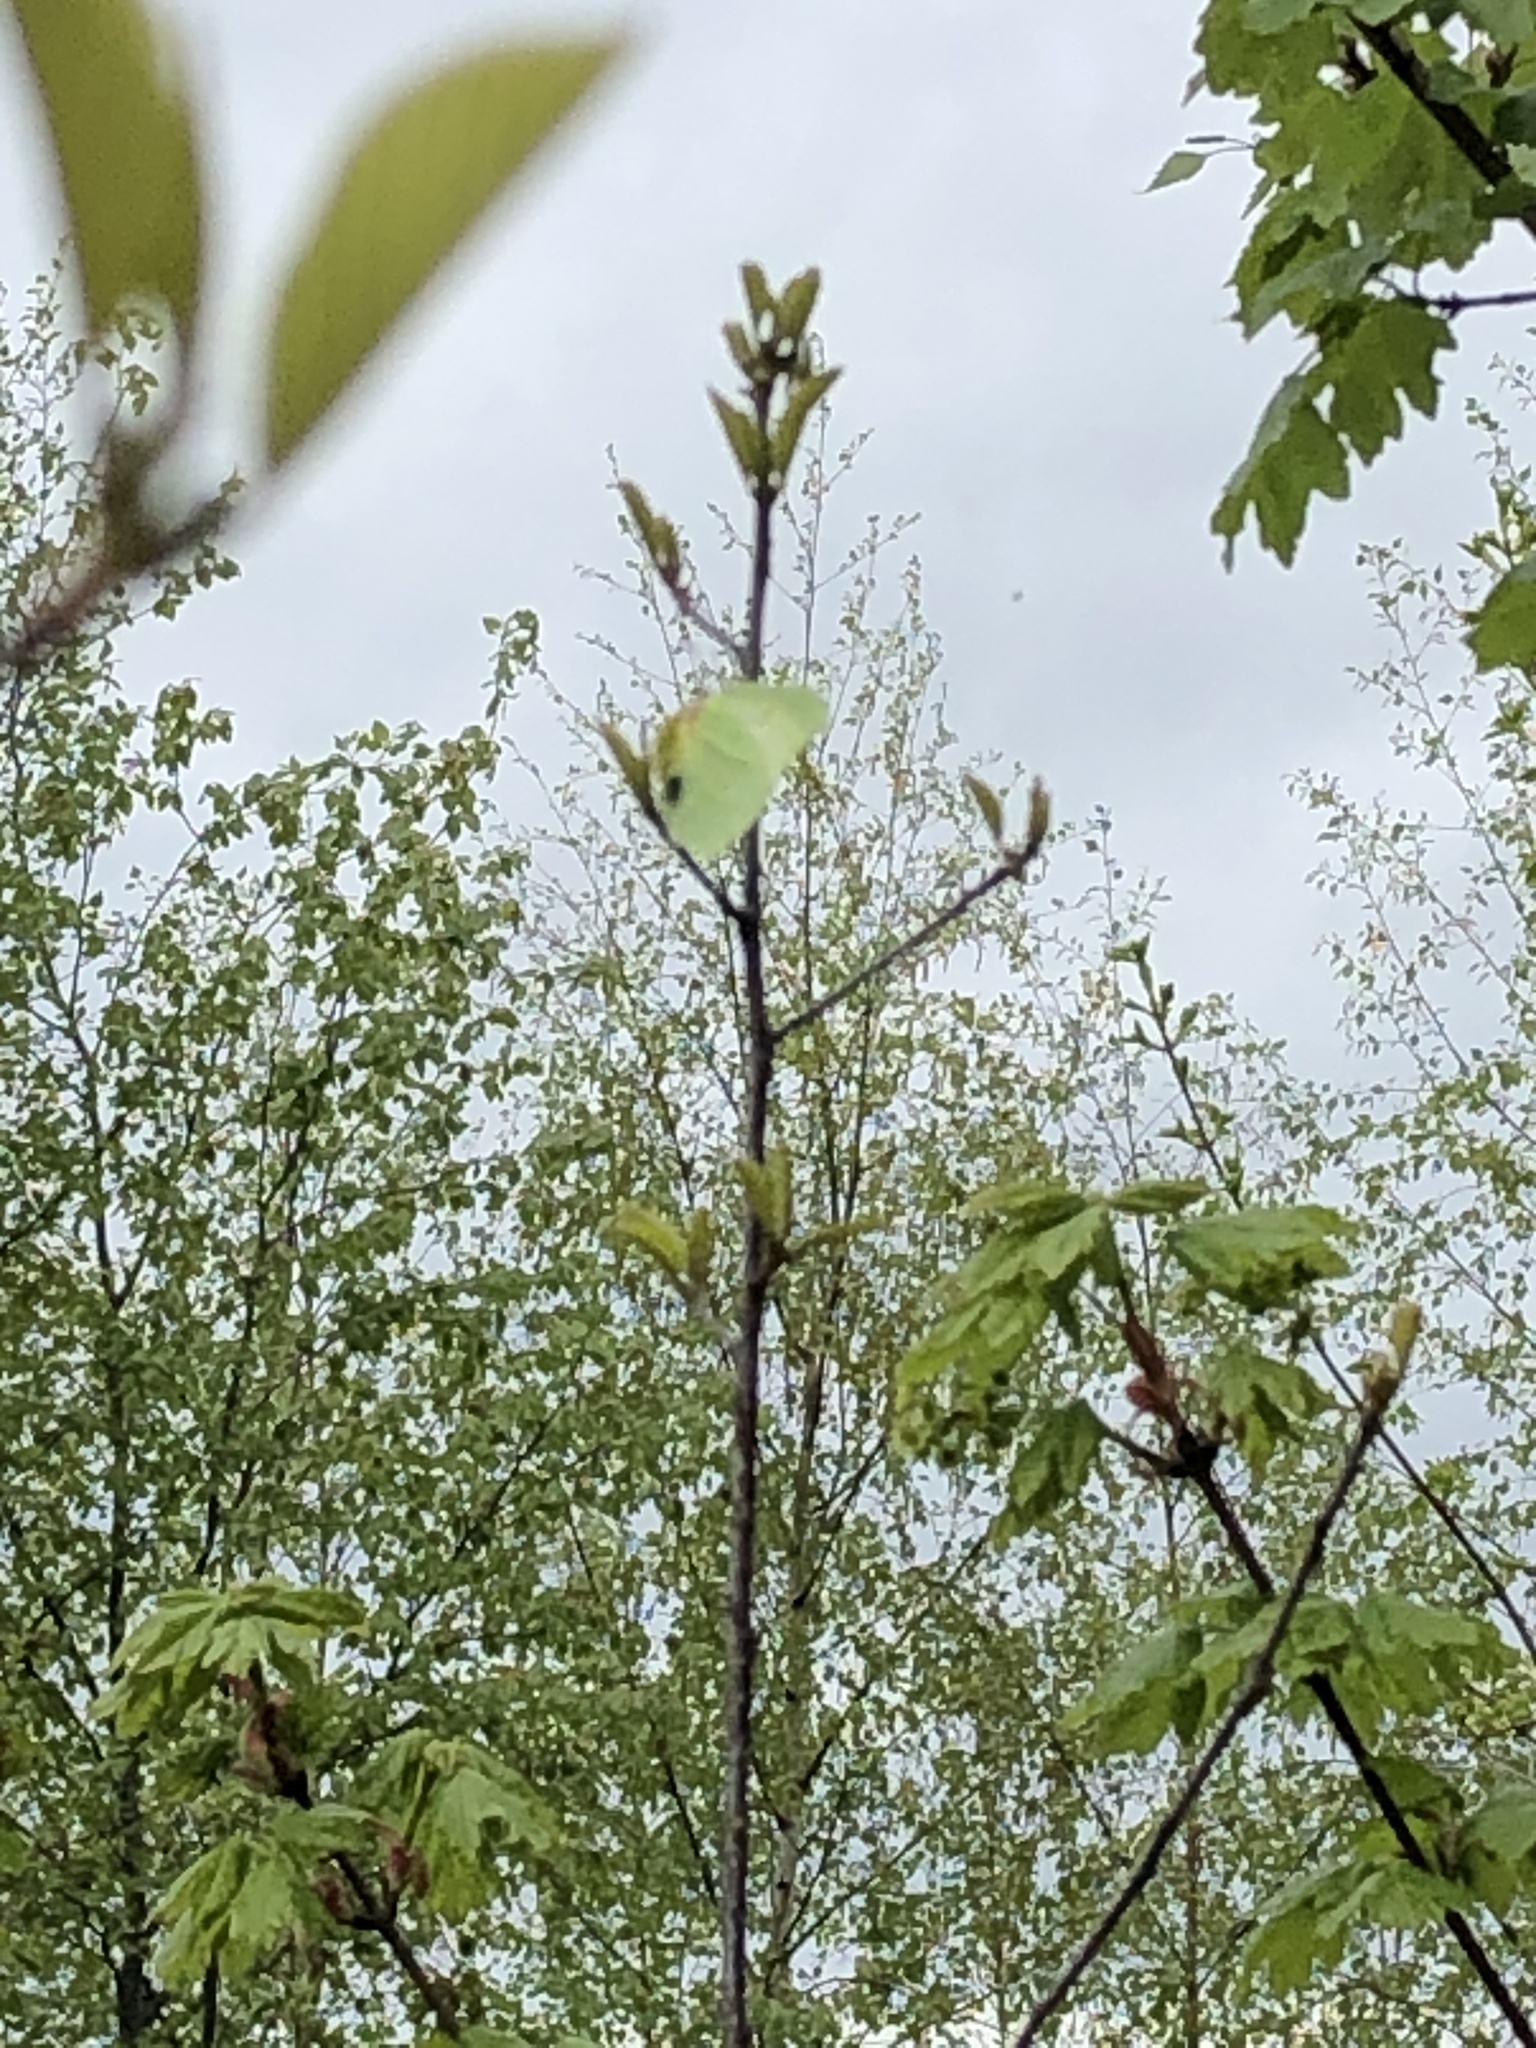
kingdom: Animalia
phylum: Arthropoda
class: Insecta
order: Lepidoptera
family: Pieridae
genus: Gonepteryx
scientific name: Gonepteryx rhamni
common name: Brimstone
